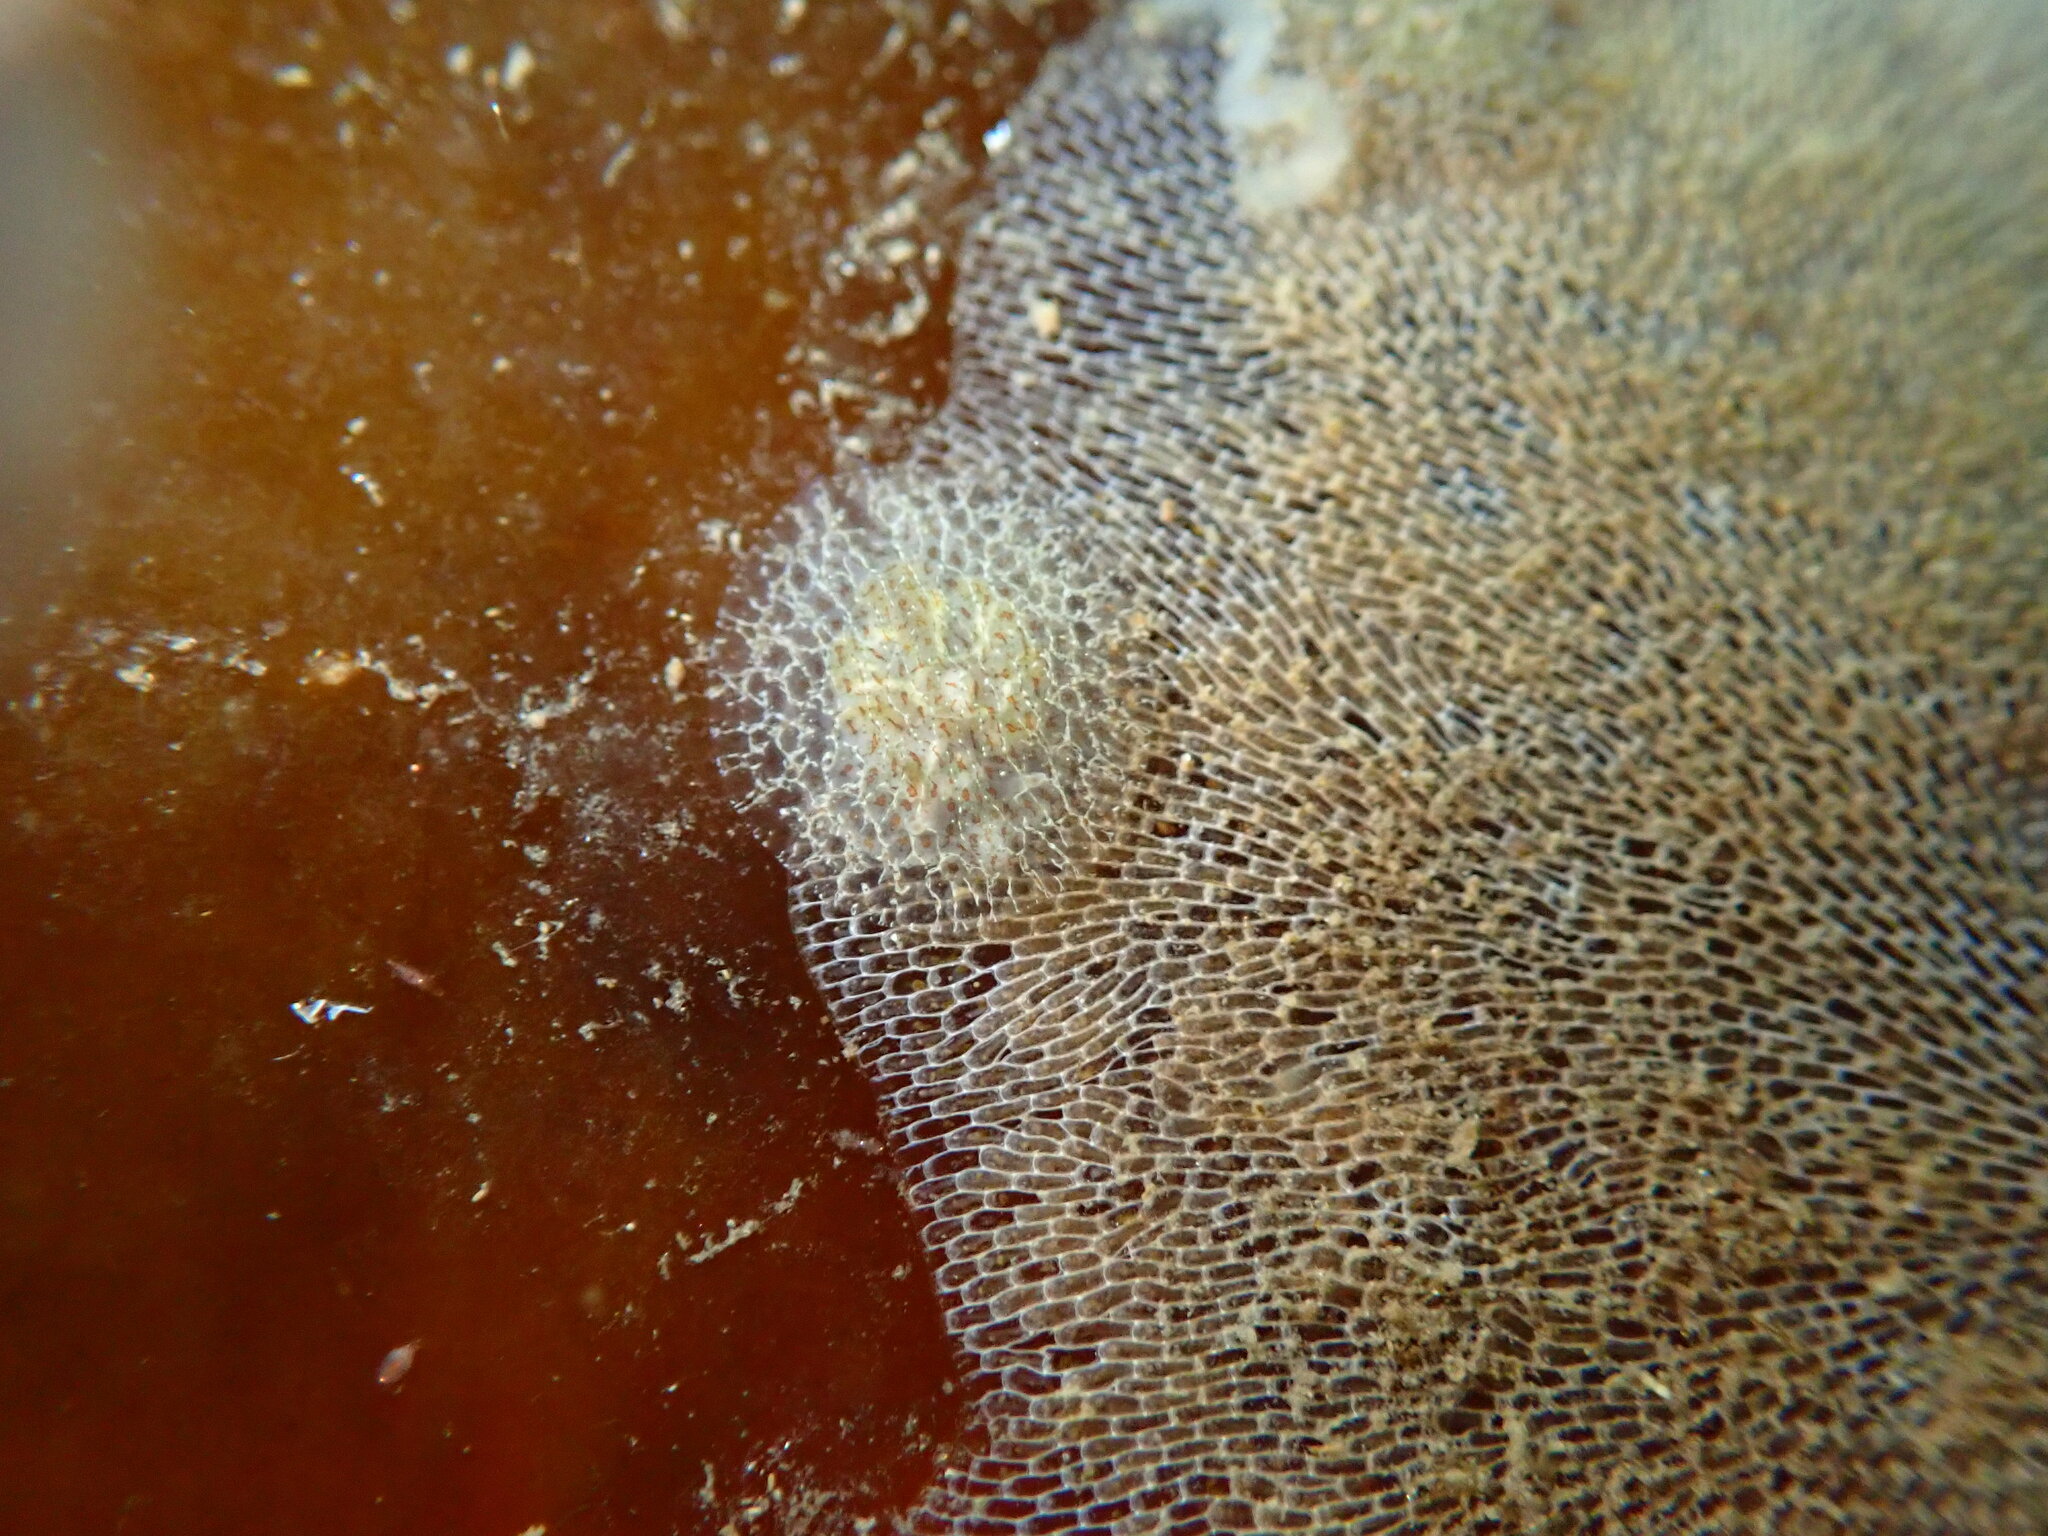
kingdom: Animalia
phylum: Mollusca
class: Gastropoda
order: Nudibranchia
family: Corambidae
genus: Corambe
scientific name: Corambe steinbergae
